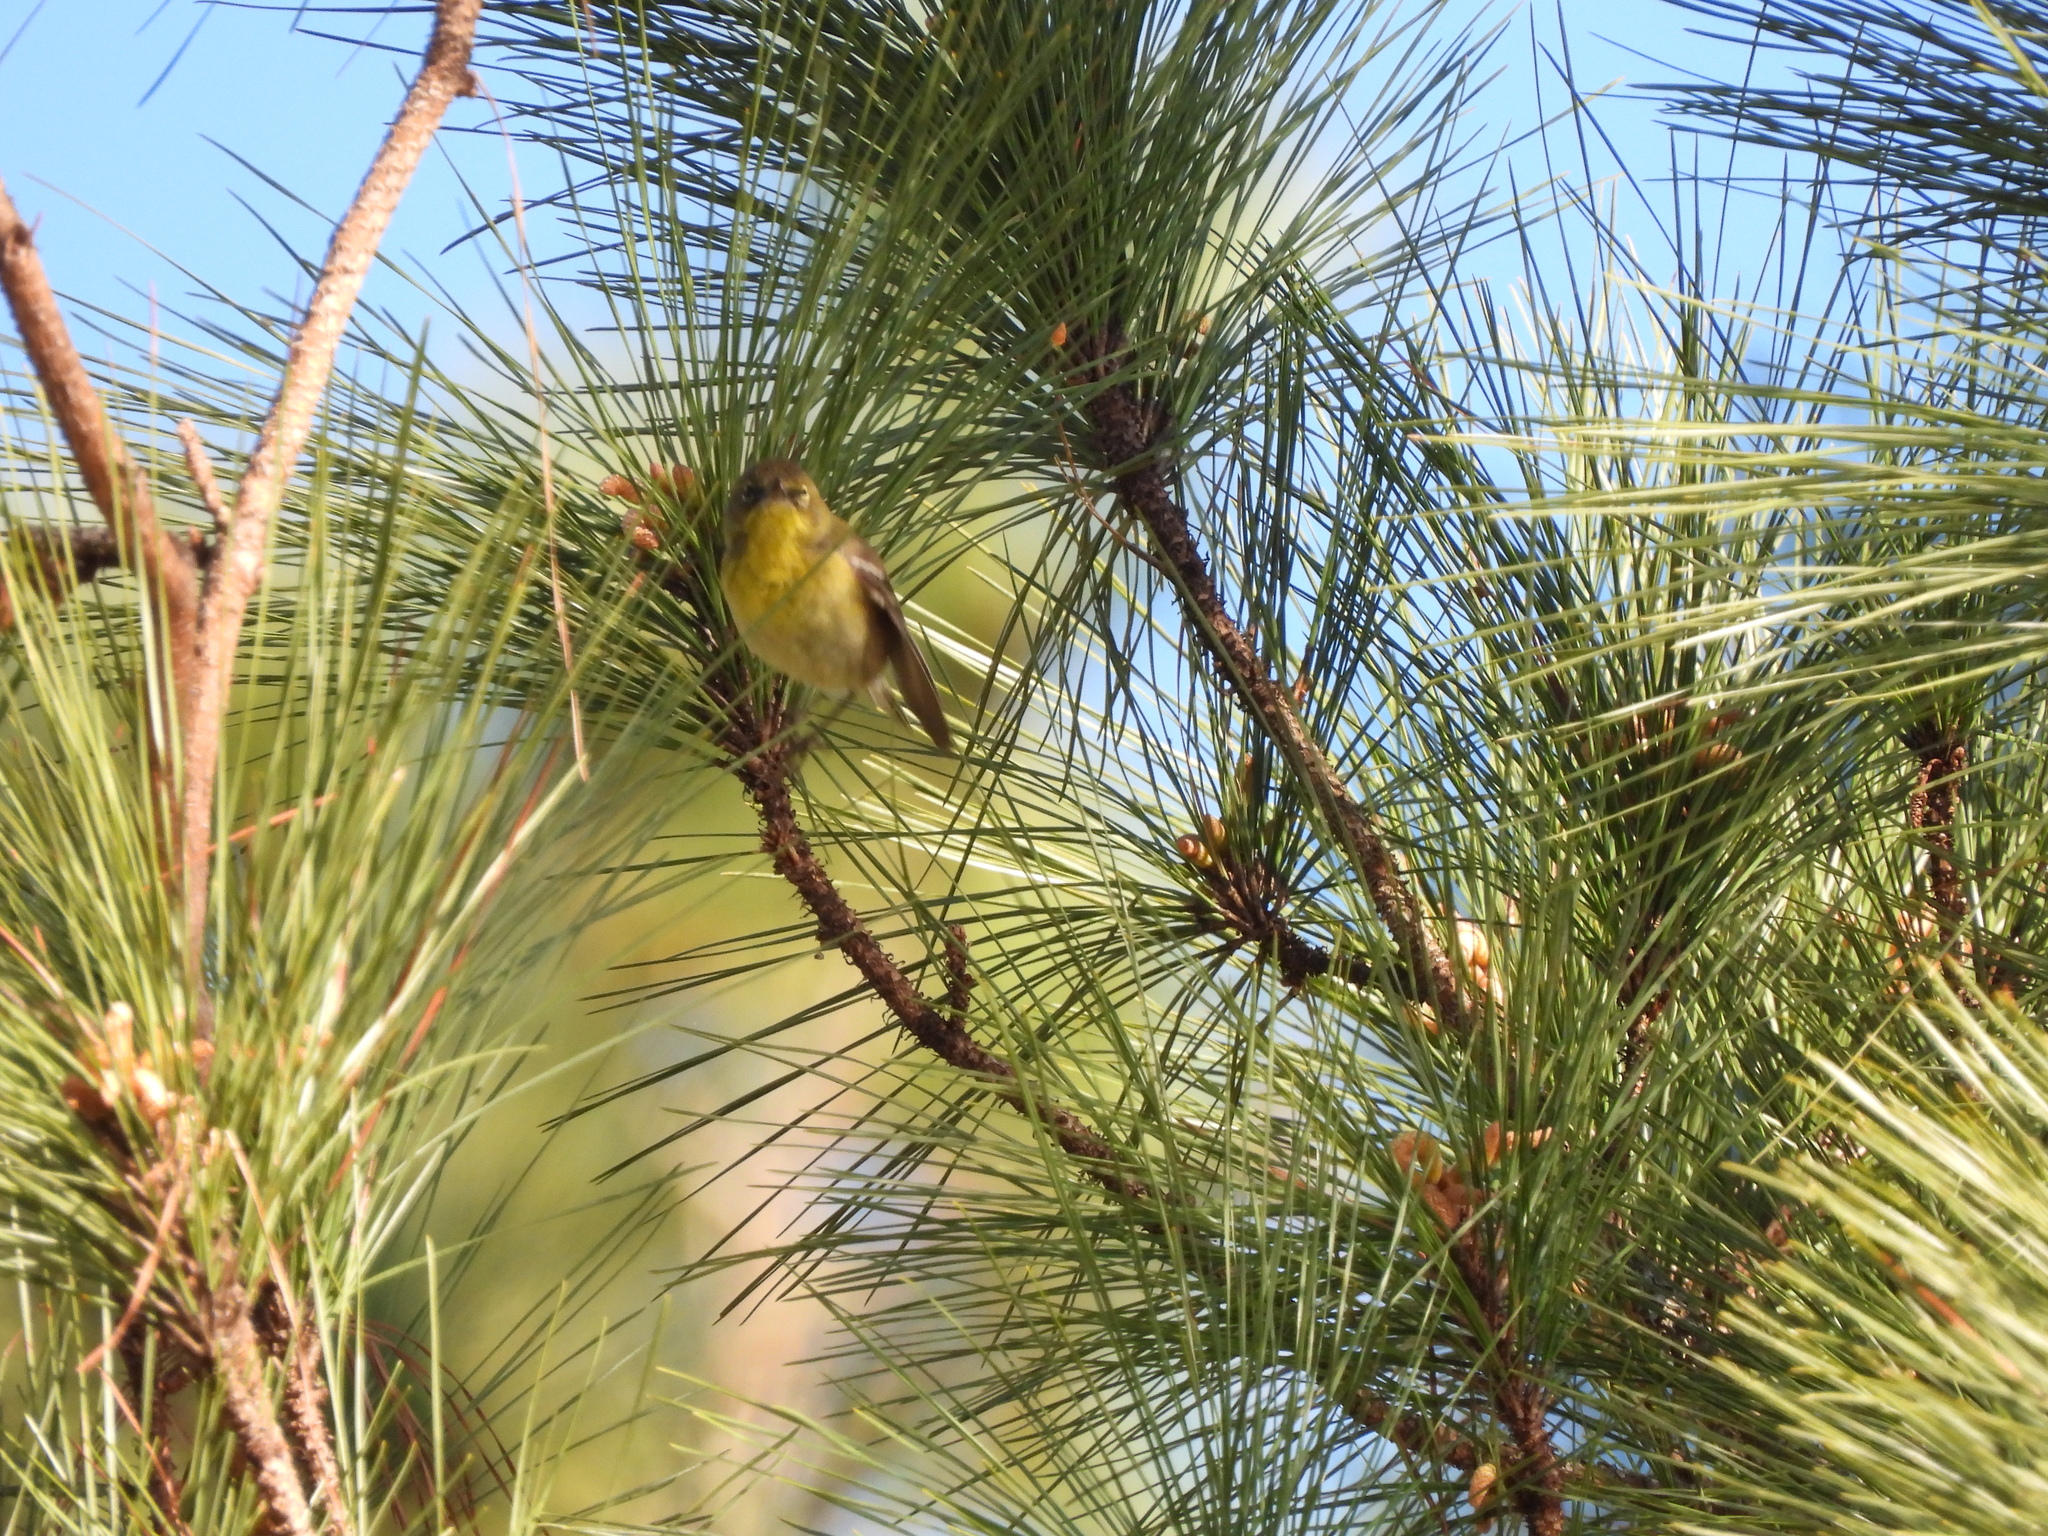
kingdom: Animalia
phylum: Chordata
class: Aves
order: Passeriformes
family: Parulidae
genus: Setophaga
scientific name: Setophaga pinus
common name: Pine warbler
